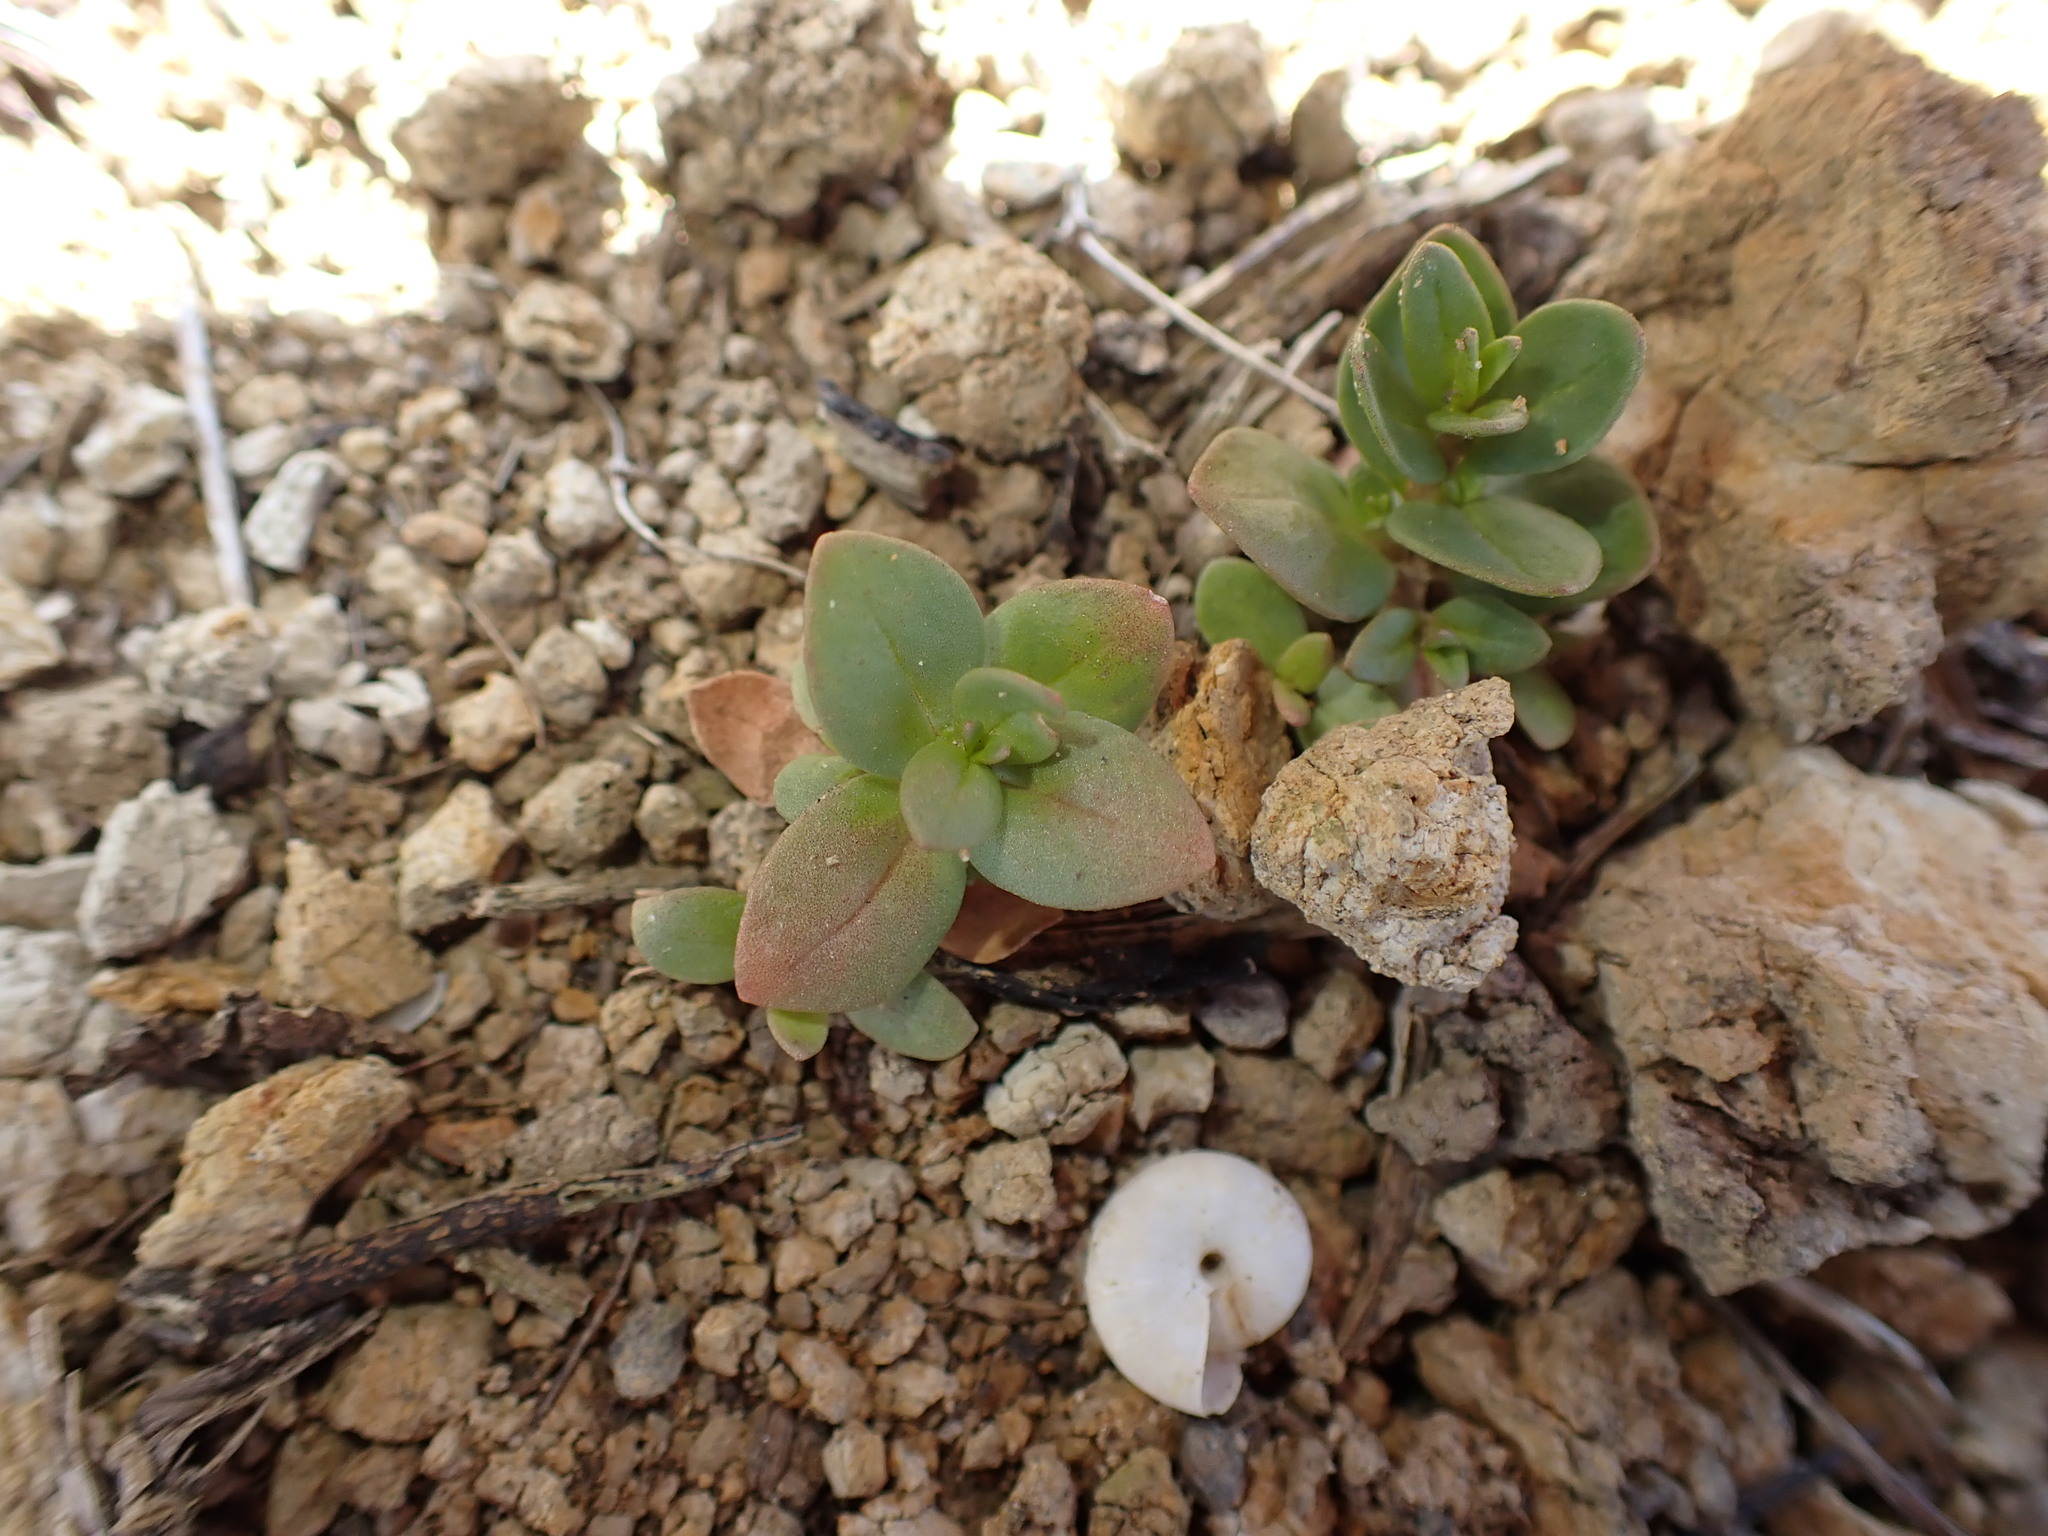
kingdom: Plantae
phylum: Tracheophyta
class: Magnoliopsida
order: Saxifragales
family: Crassulaceae
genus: Crassula
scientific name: Crassula multicava
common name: Cape province pygmyweed
